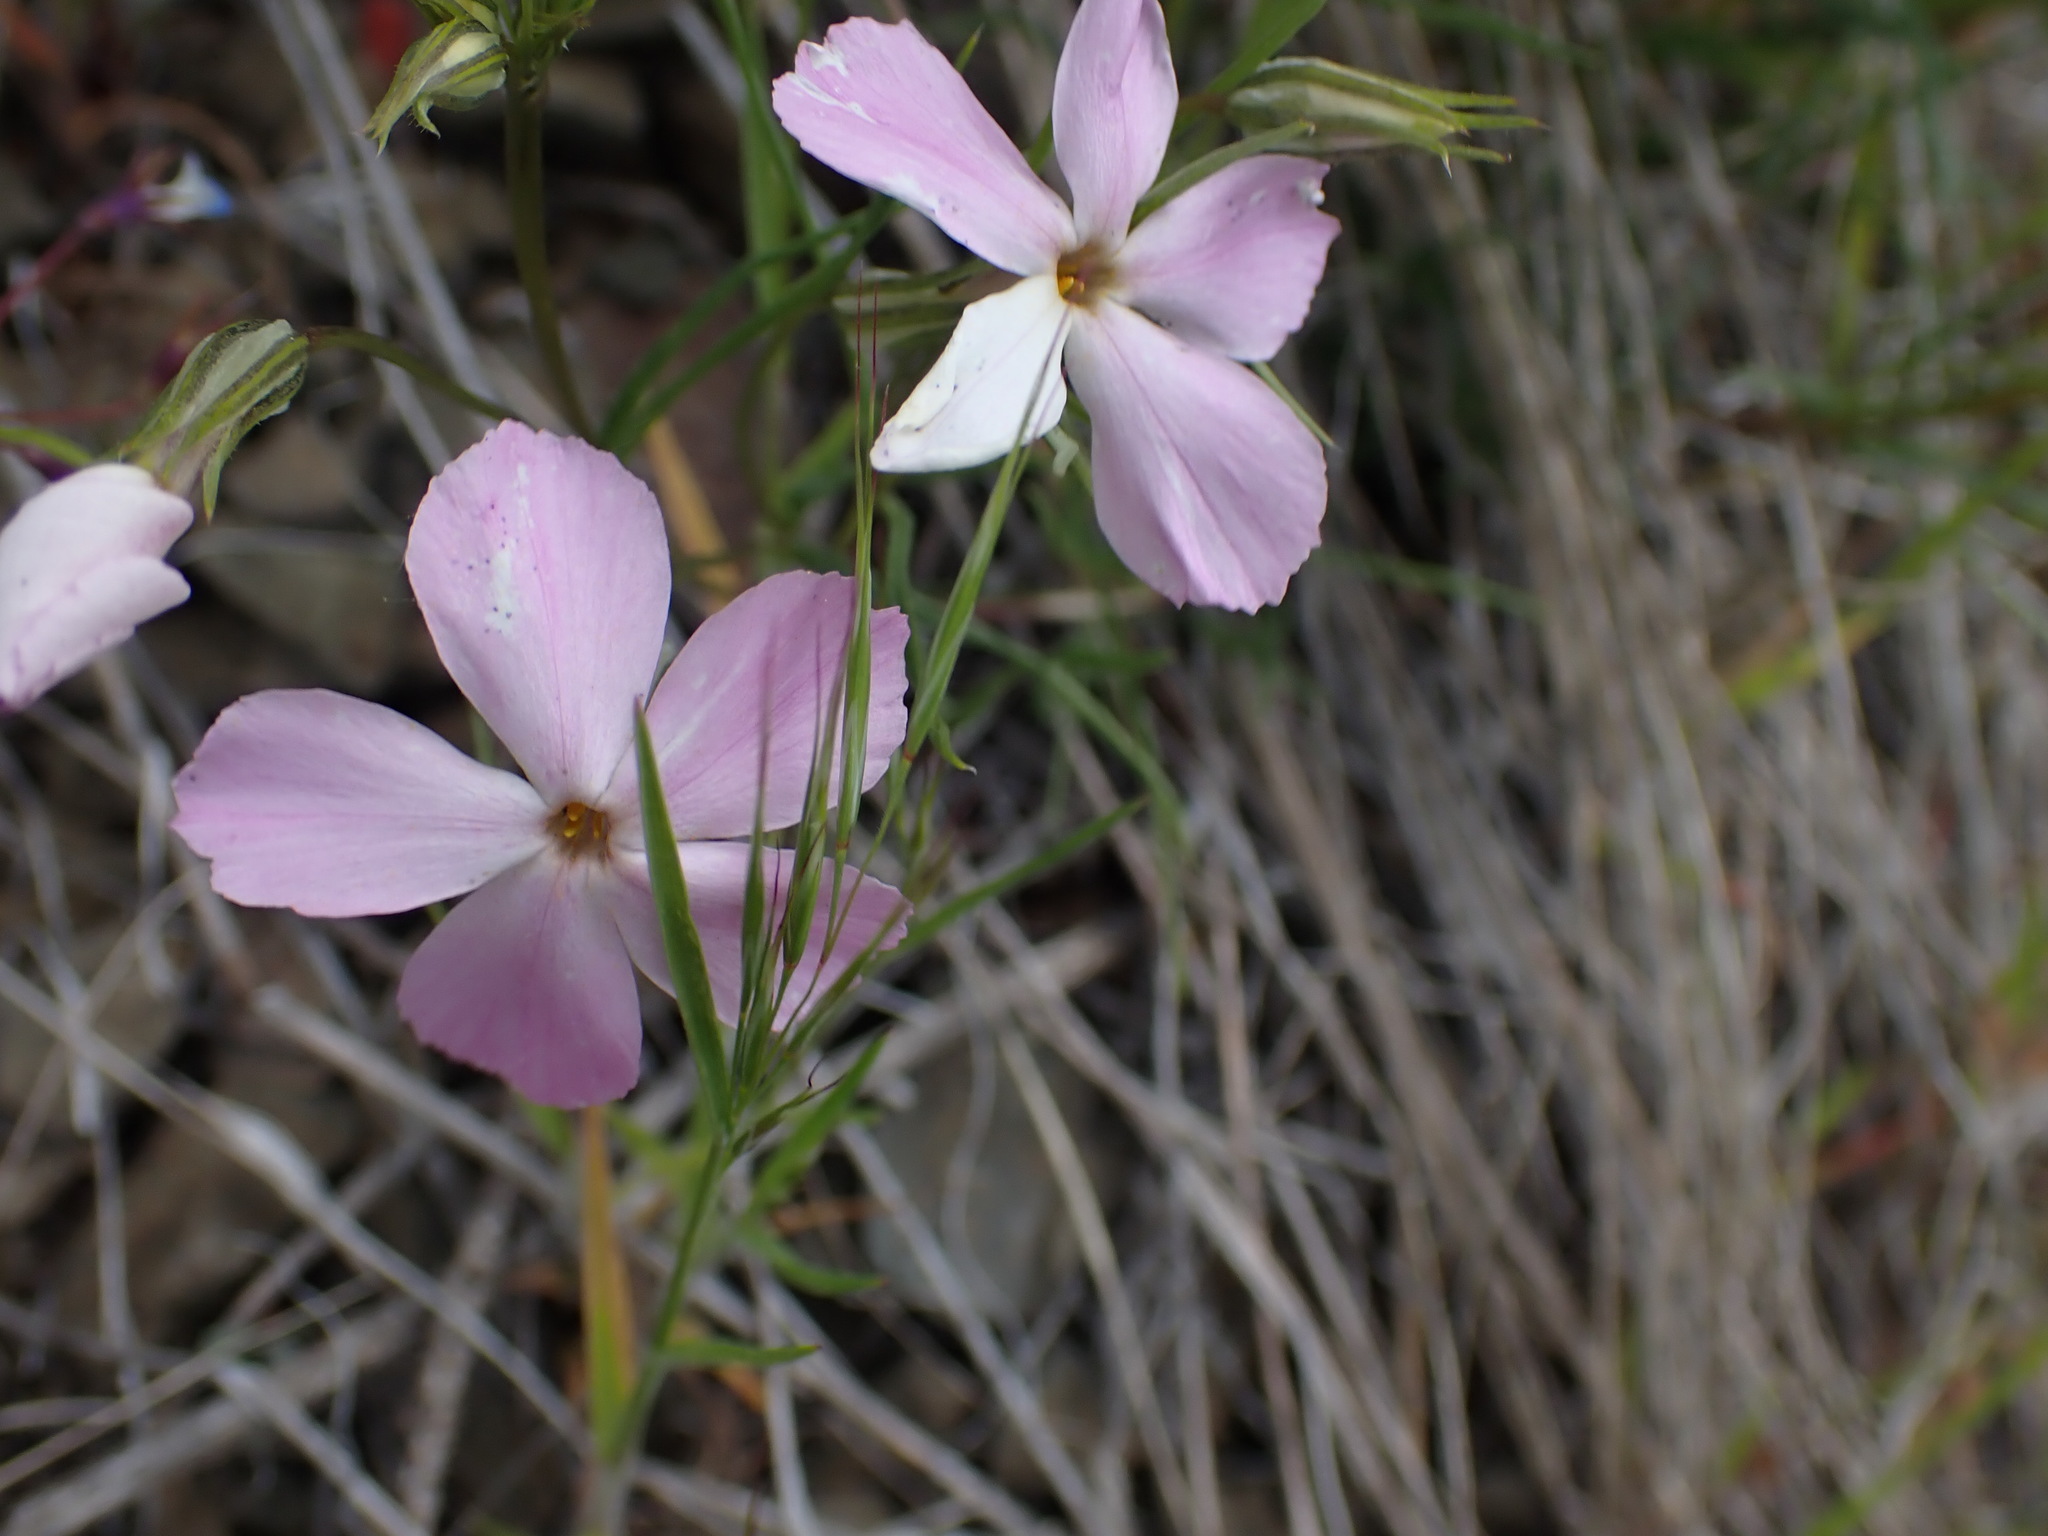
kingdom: Plantae
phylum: Tracheophyta
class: Magnoliopsida
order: Ericales
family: Polemoniaceae
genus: Phlox
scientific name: Phlox longifolia
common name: Longleaf phlox
